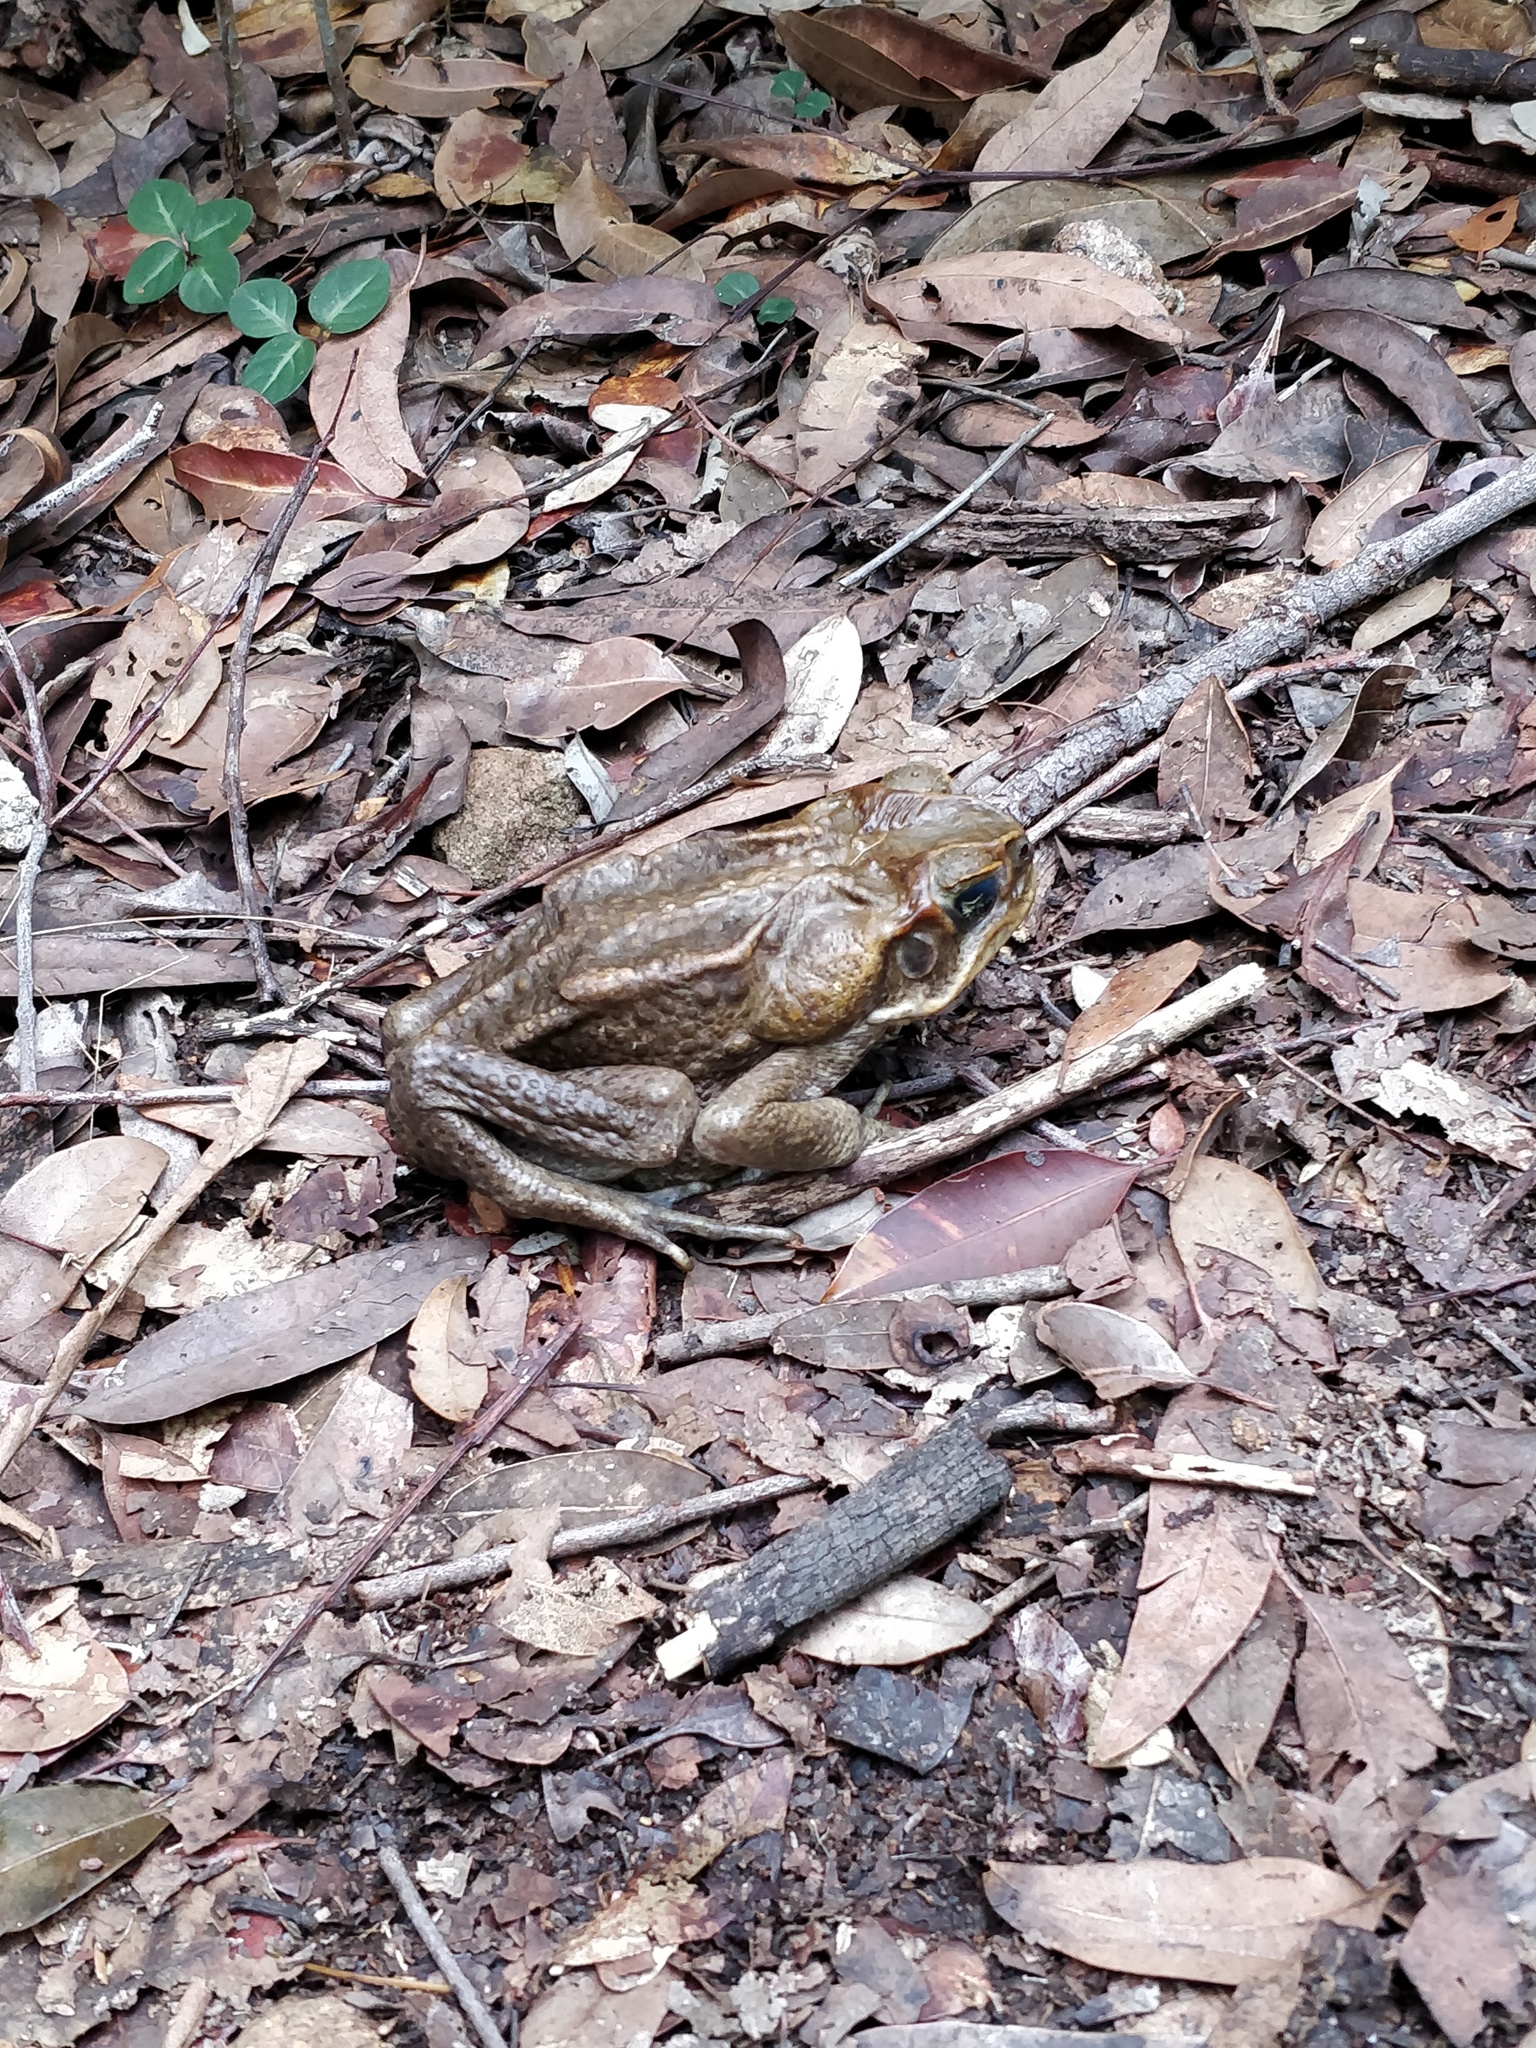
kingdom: Animalia
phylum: Chordata
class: Amphibia
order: Anura
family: Bufonidae
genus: Rhinella
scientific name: Rhinella marina
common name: Cane toad
